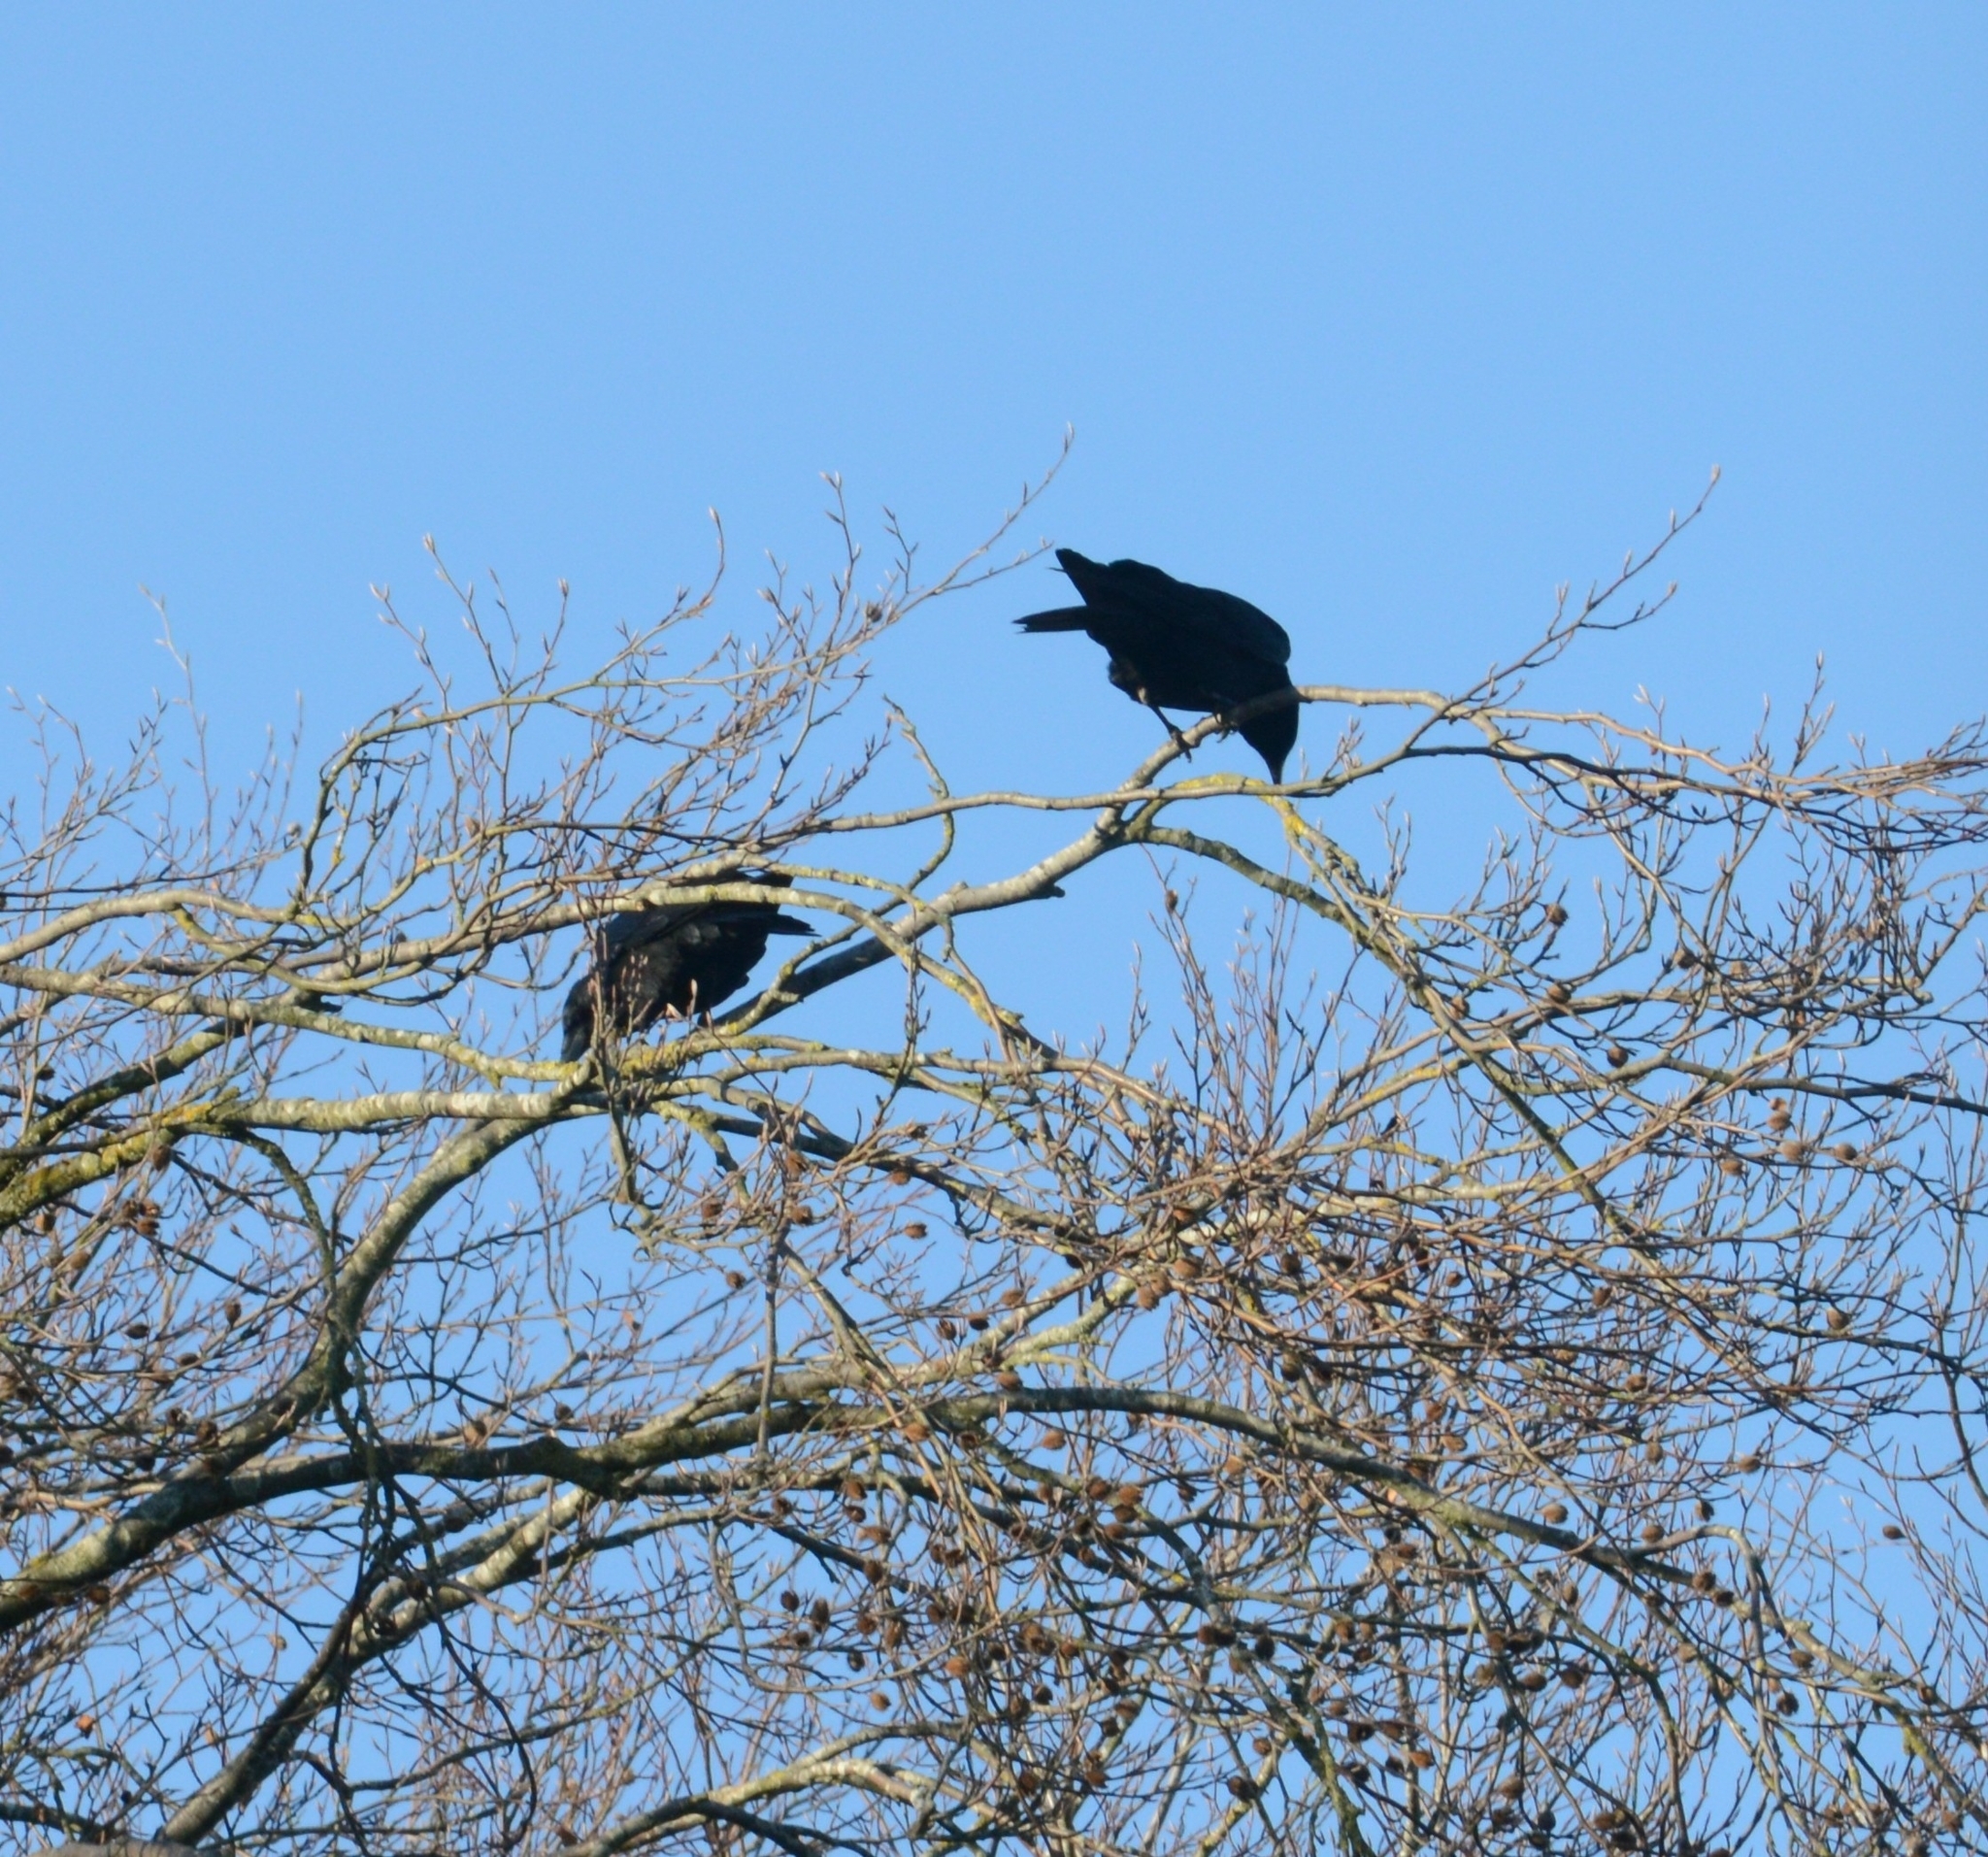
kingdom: Animalia
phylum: Chordata
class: Aves
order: Passeriformes
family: Corvidae
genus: Corvus
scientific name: Corvus corone
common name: Carrion crow
